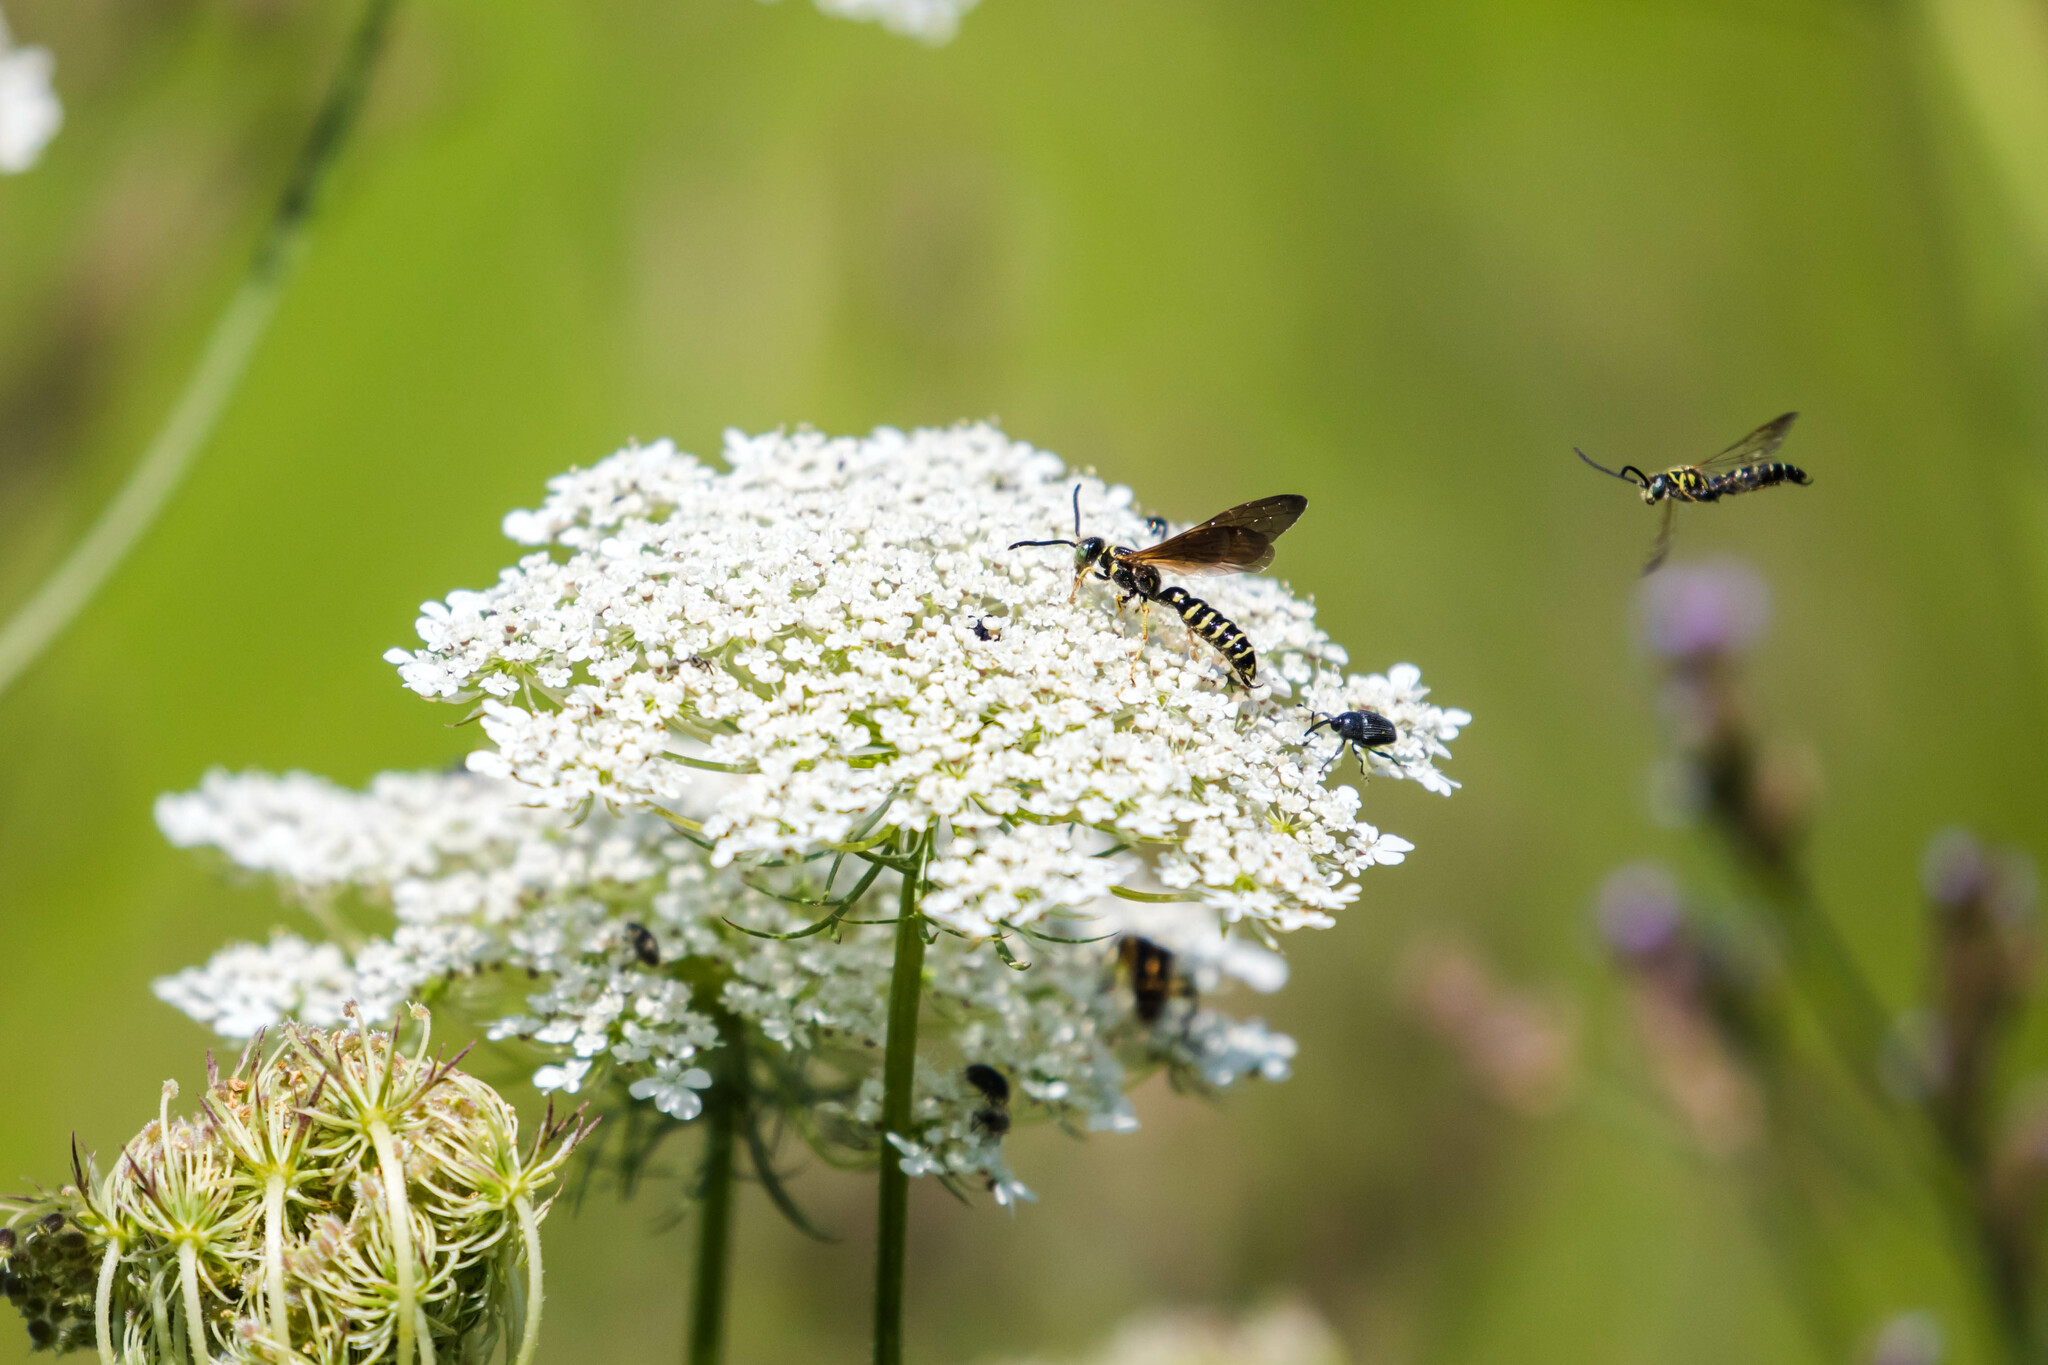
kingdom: Animalia
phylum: Arthropoda
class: Insecta
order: Hymenoptera
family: Tiphiidae
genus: Myzinum
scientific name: Myzinum quinquecinctum
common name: Five-banded thynnid wasp
